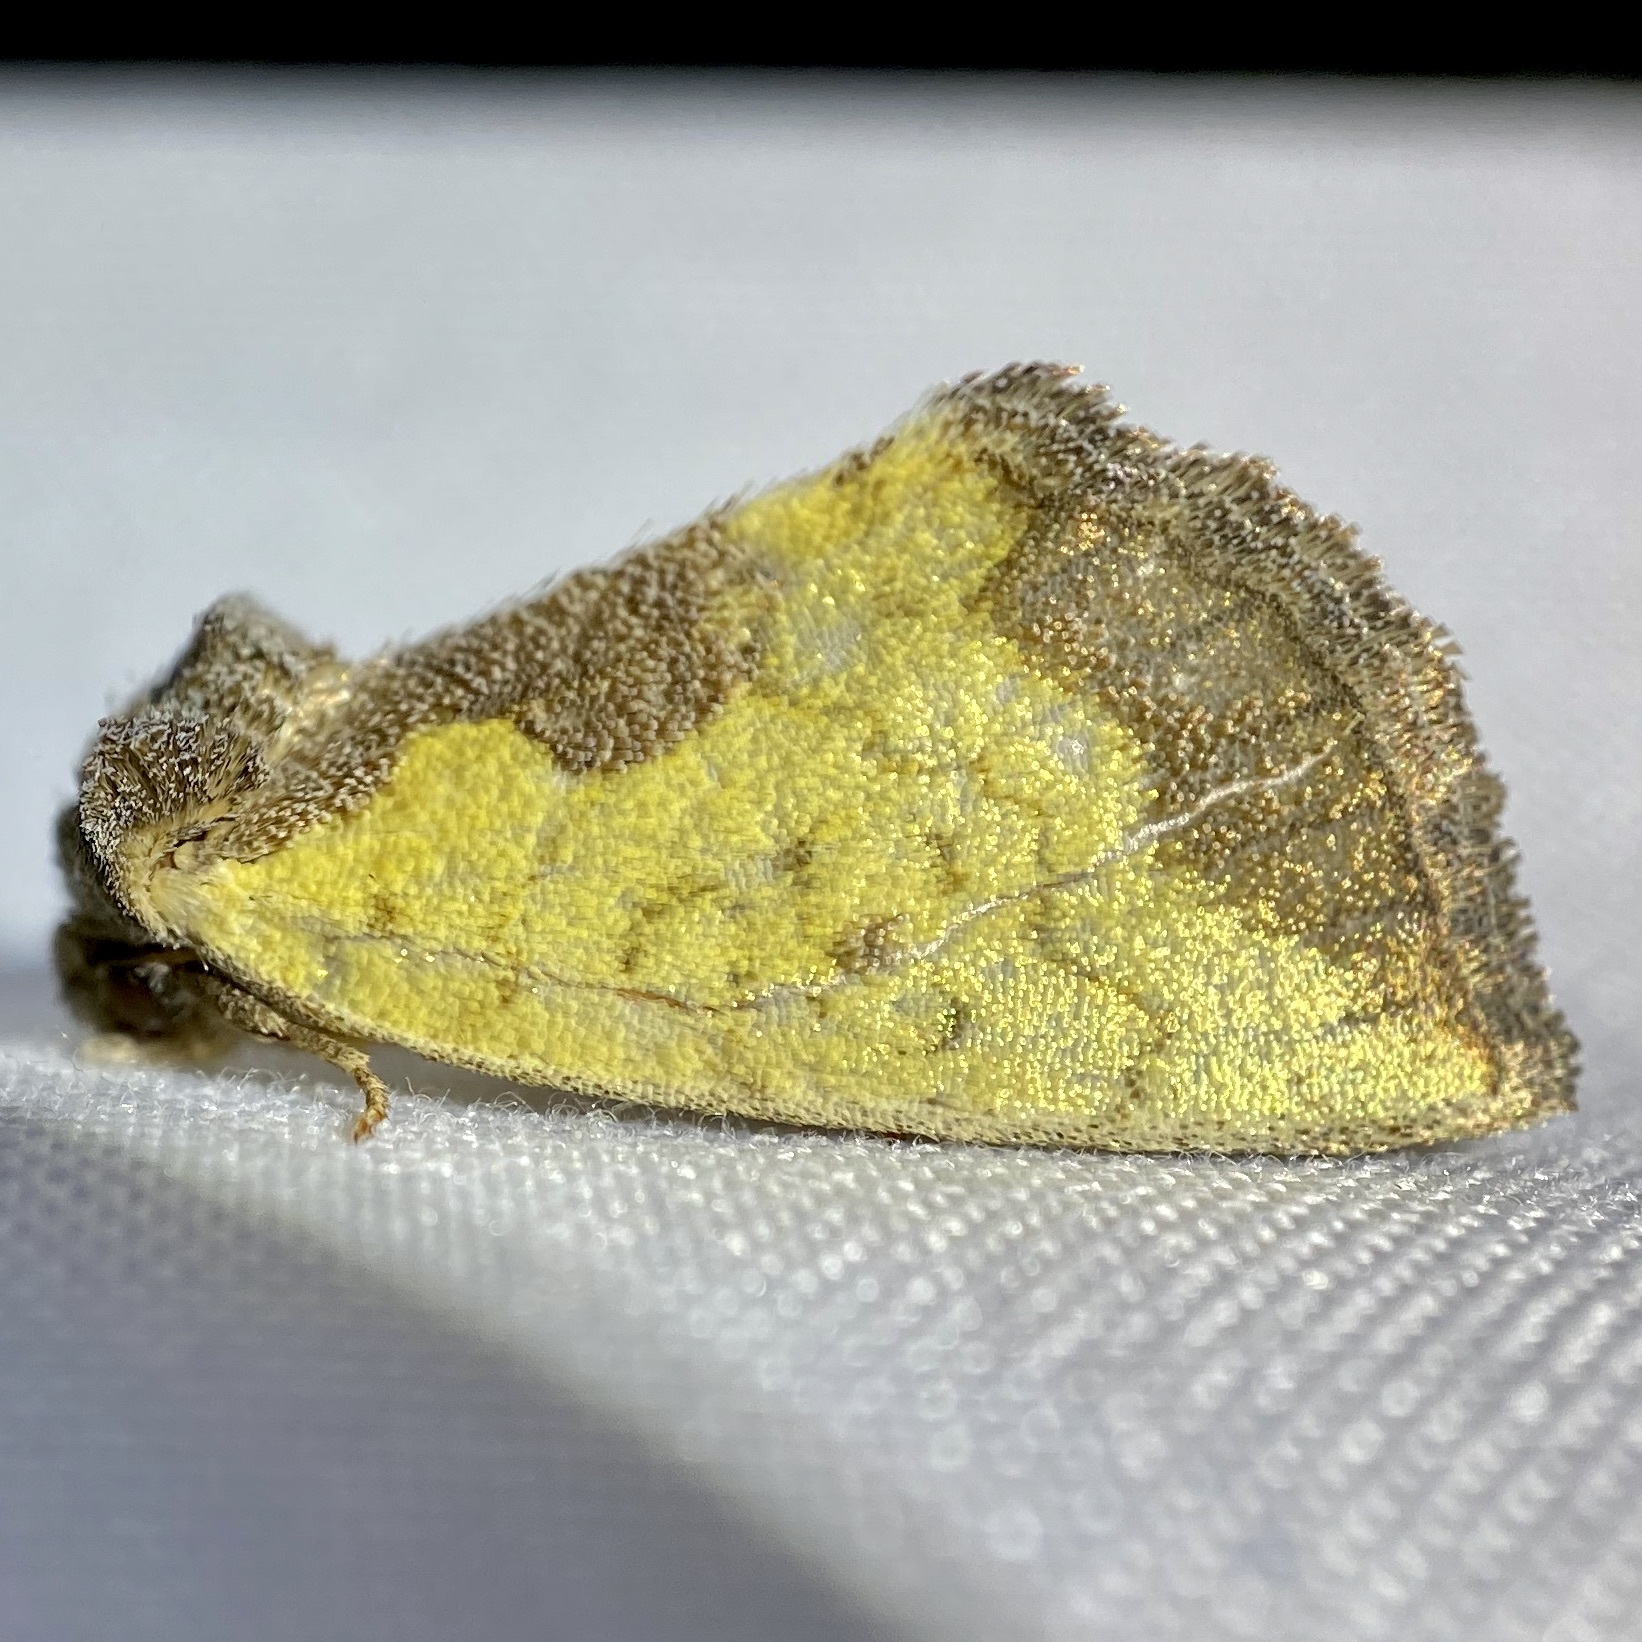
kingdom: Animalia
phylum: Arthropoda
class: Insecta
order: Lepidoptera
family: Noctuidae
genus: Stiria
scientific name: Stiria satana
